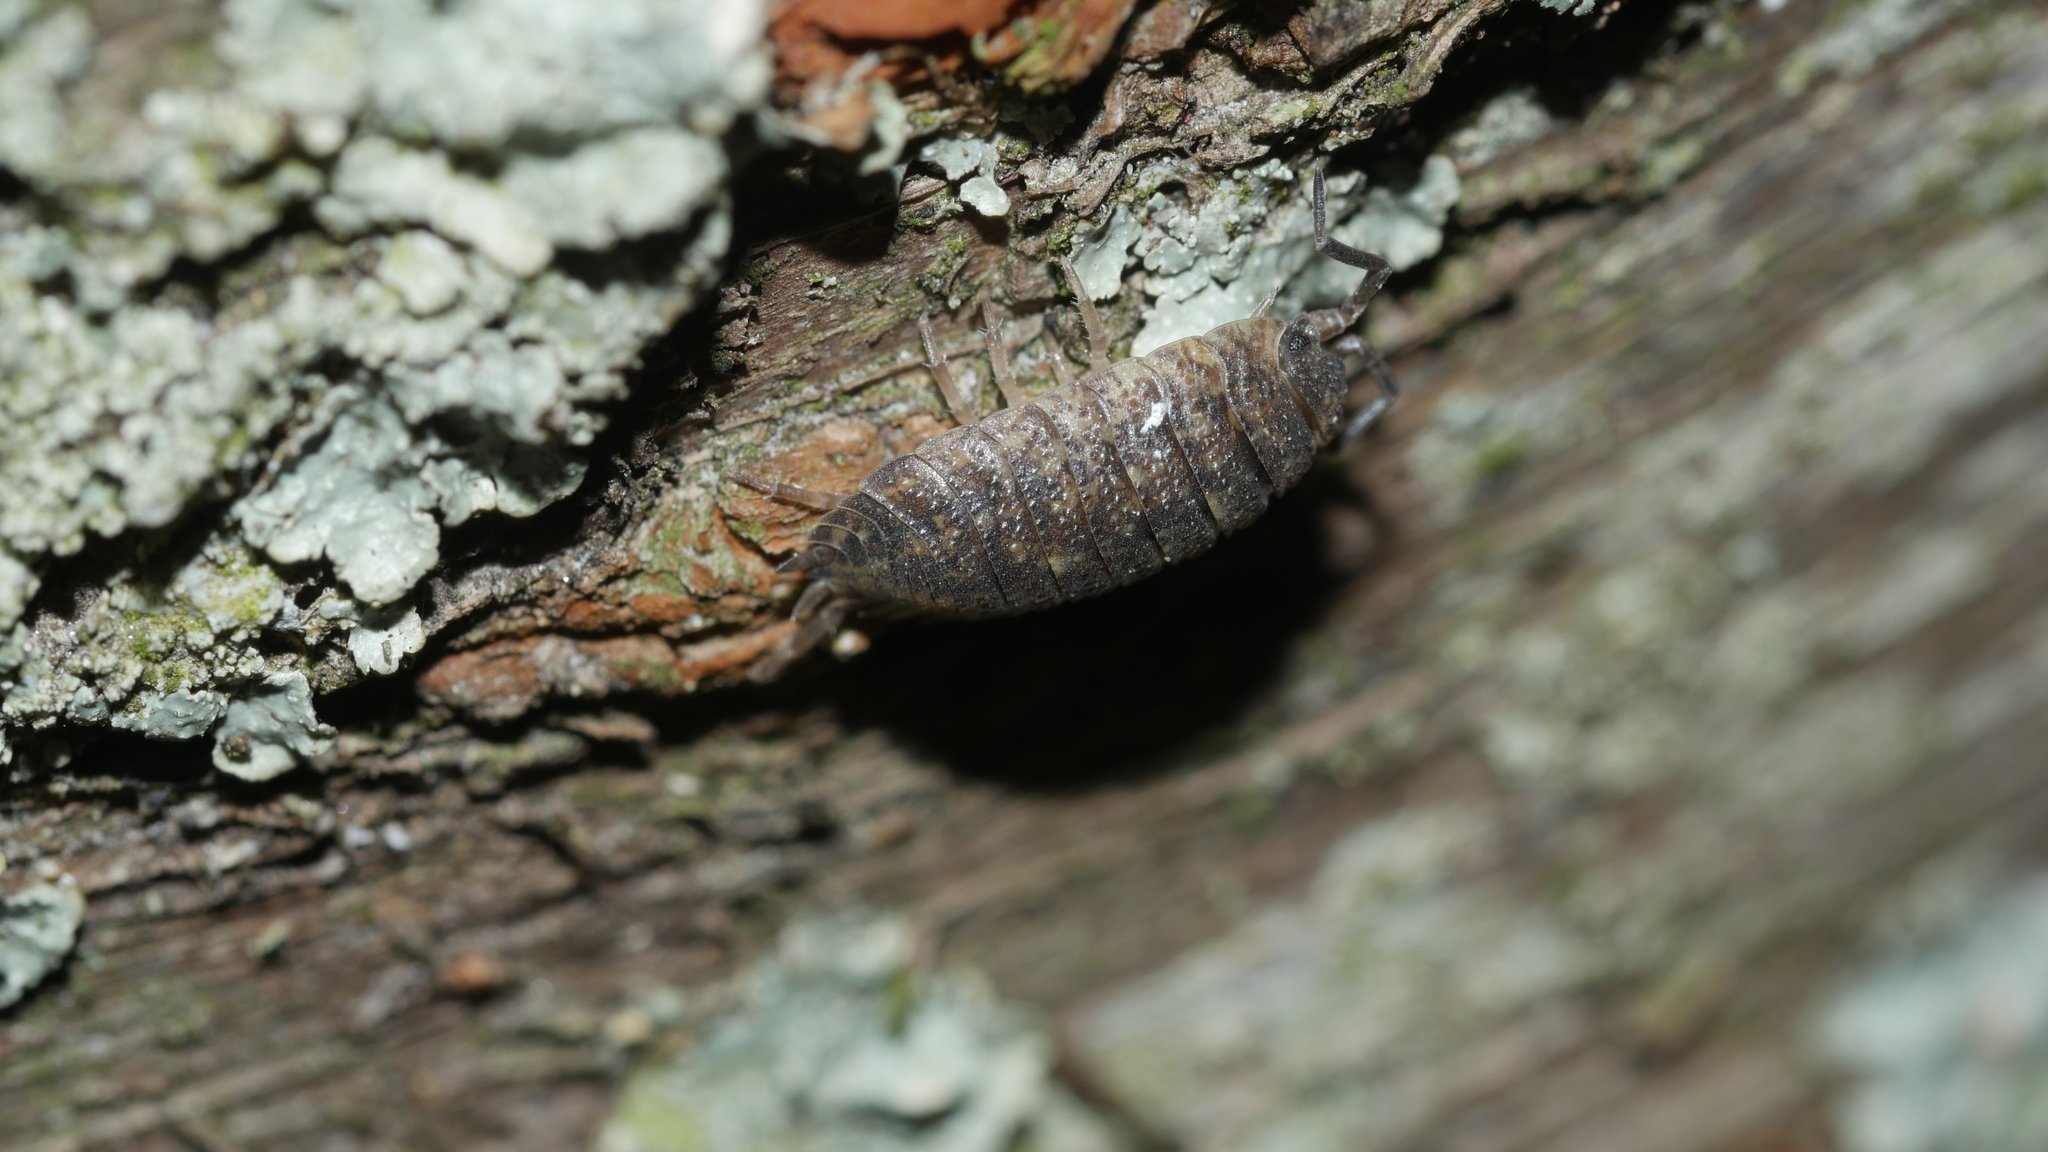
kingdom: Animalia
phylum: Arthropoda
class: Malacostraca
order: Isopoda
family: Porcellionidae
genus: Porcellio
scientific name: Porcellio scaber
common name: Common rough woodlouse
